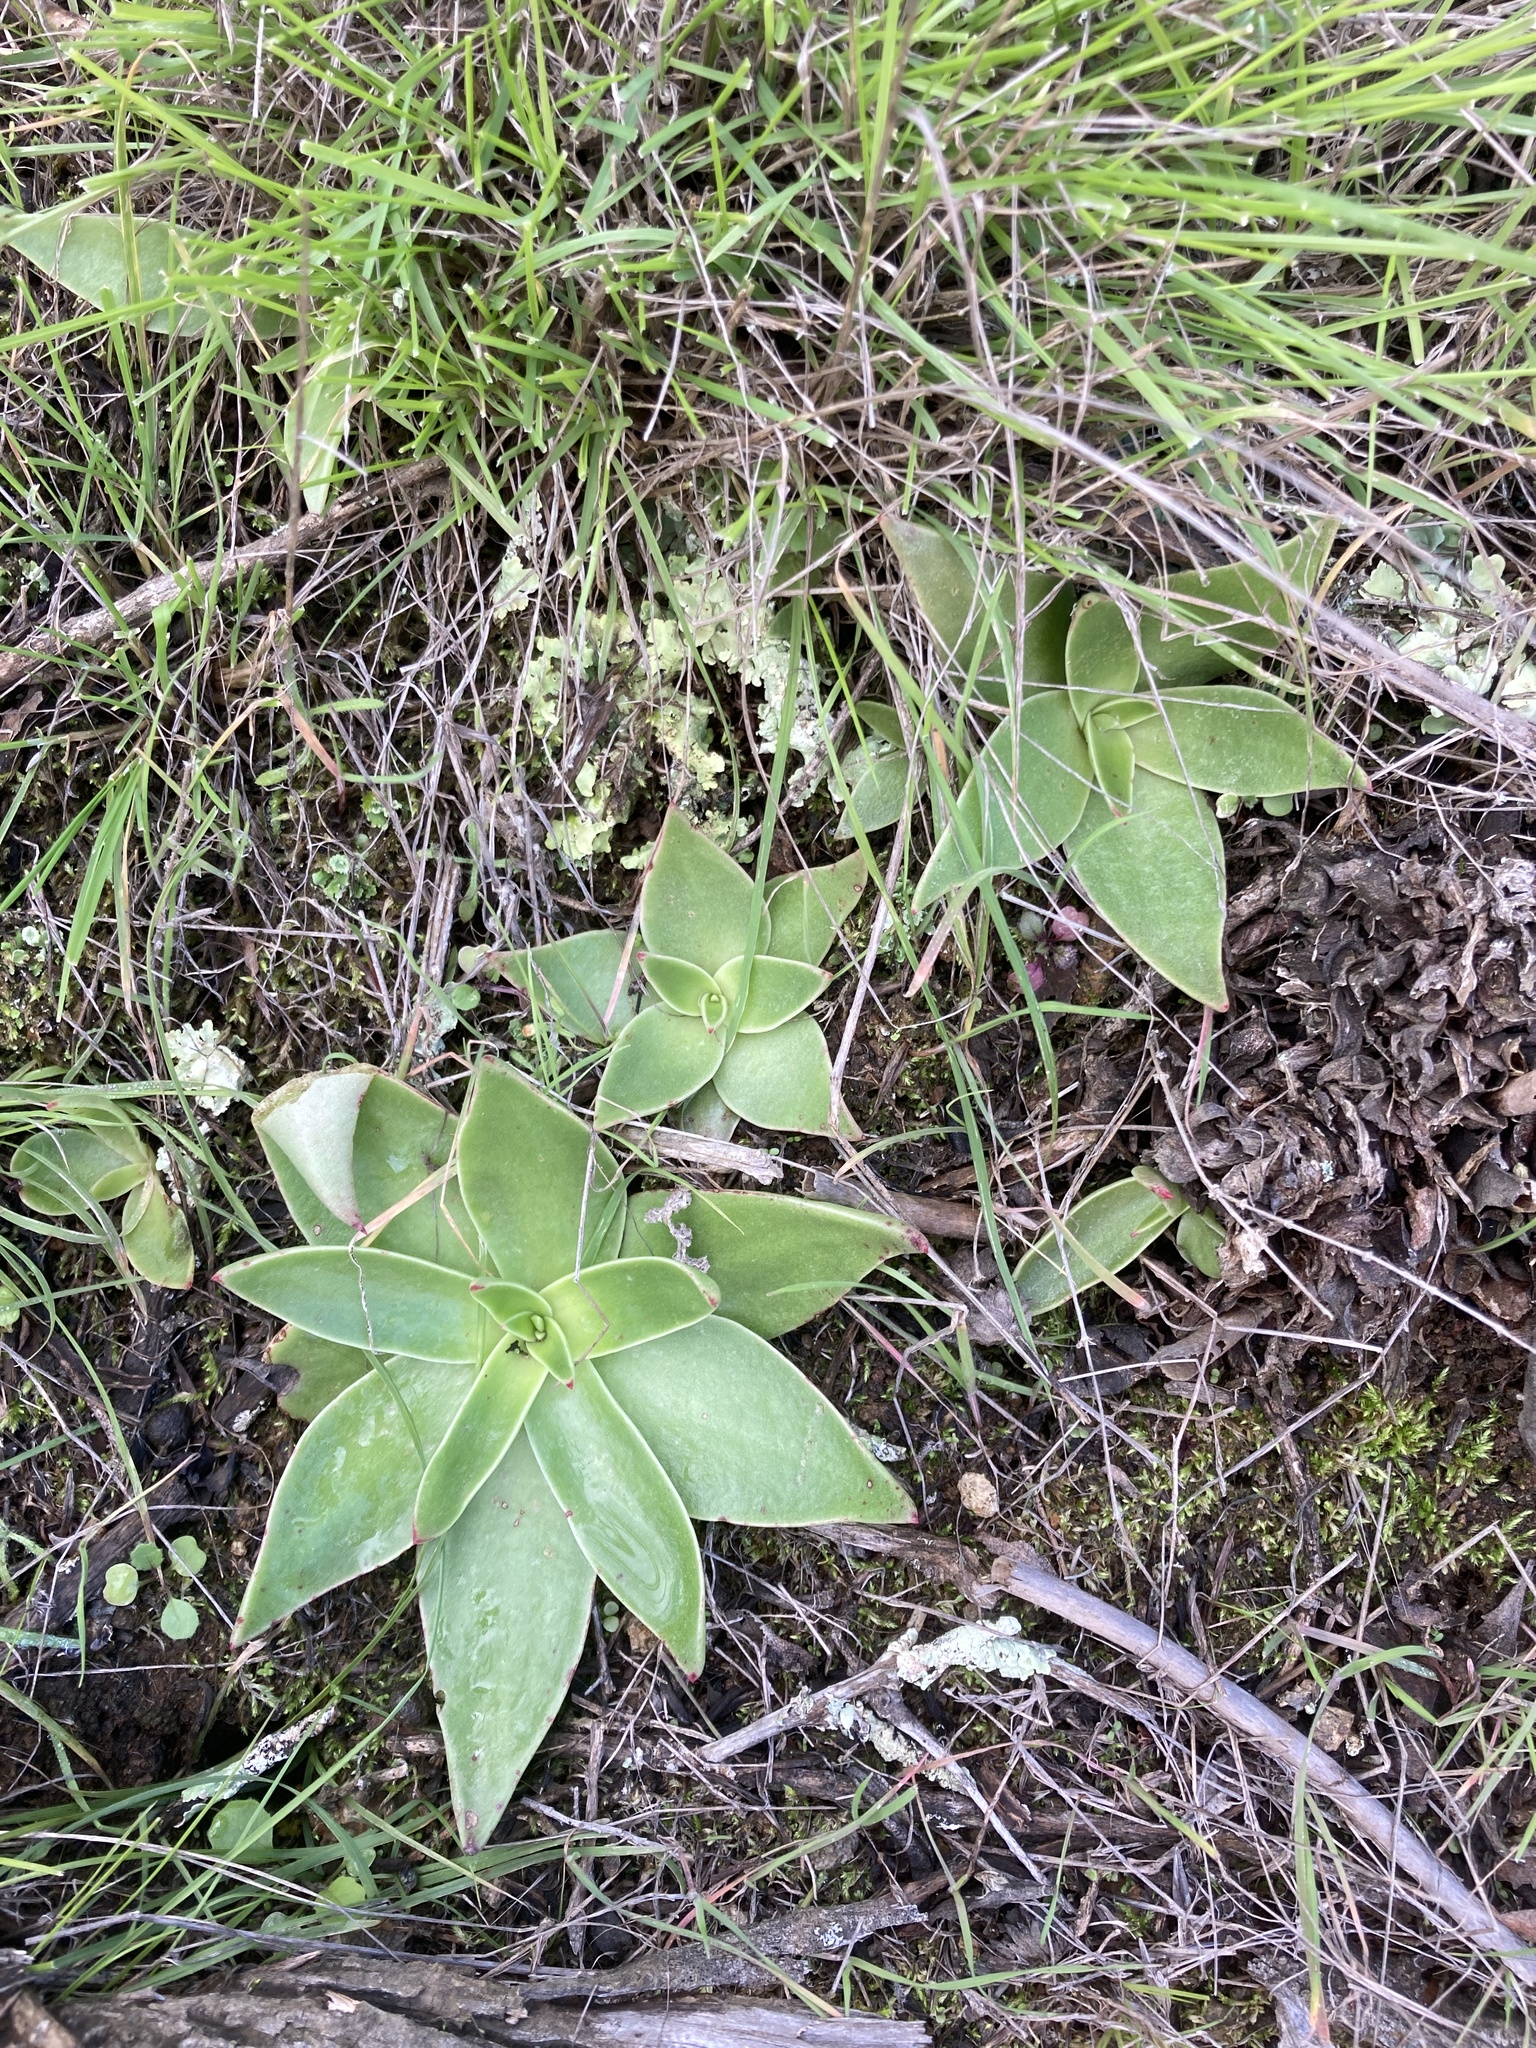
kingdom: Plantae
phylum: Tracheophyta
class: Magnoliopsida
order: Saxifragales
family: Crassulaceae
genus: Dudleya
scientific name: Dudleya lanceolata
